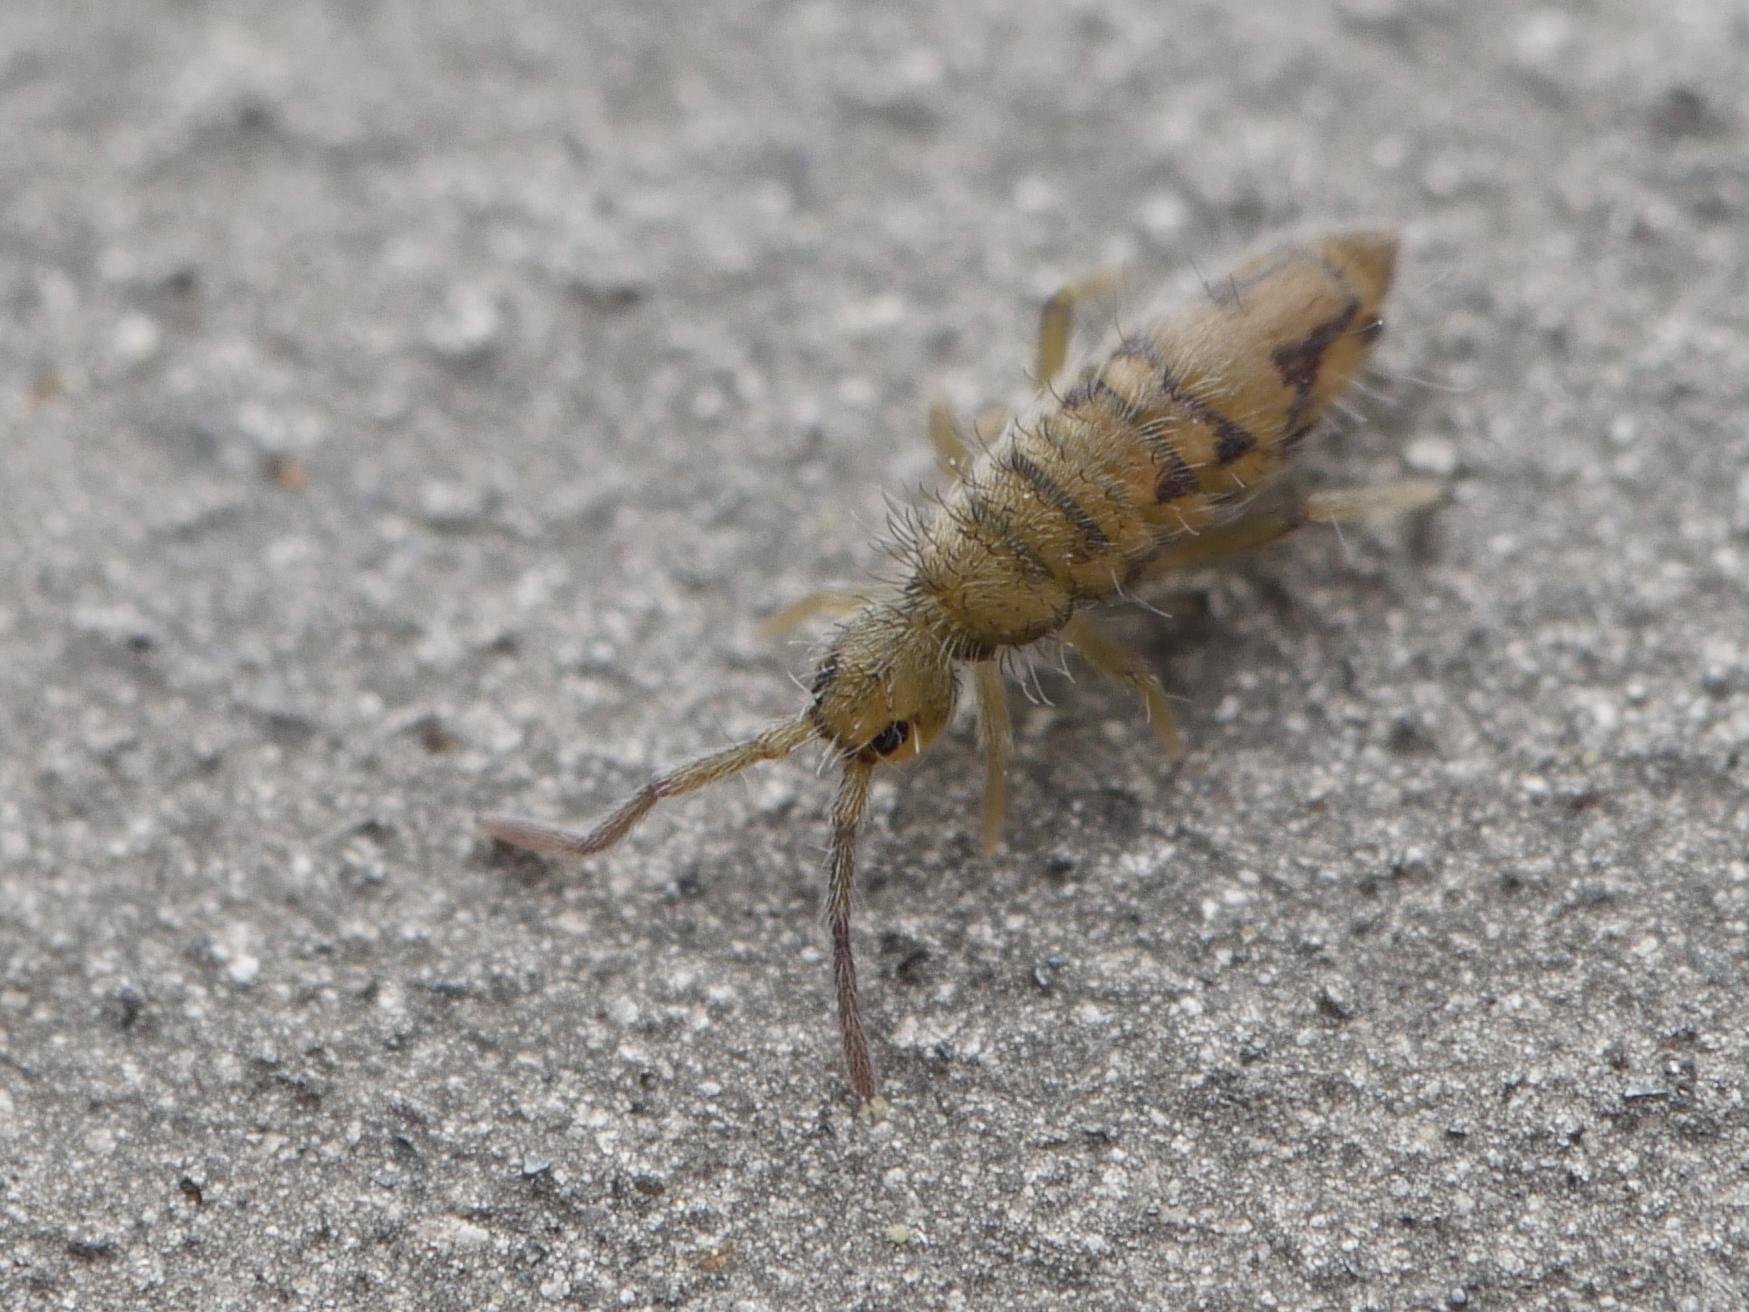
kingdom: Animalia
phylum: Arthropoda
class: Collembola
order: Entomobryomorpha
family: Entomobryidae
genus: Entomobrya
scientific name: Entomobrya nivalis
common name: Cosmopolitan springtail
